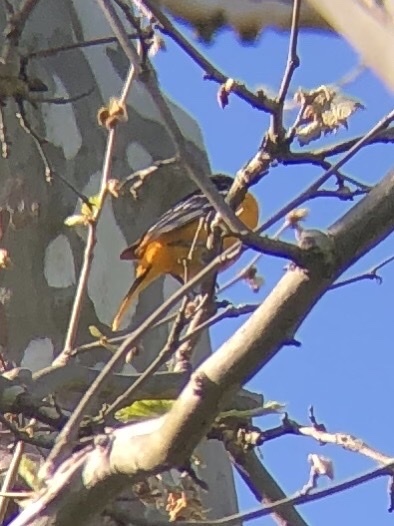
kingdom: Animalia
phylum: Chordata
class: Aves
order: Passeriformes
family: Icteridae
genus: Icterus
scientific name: Icterus galbula
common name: Baltimore oriole
